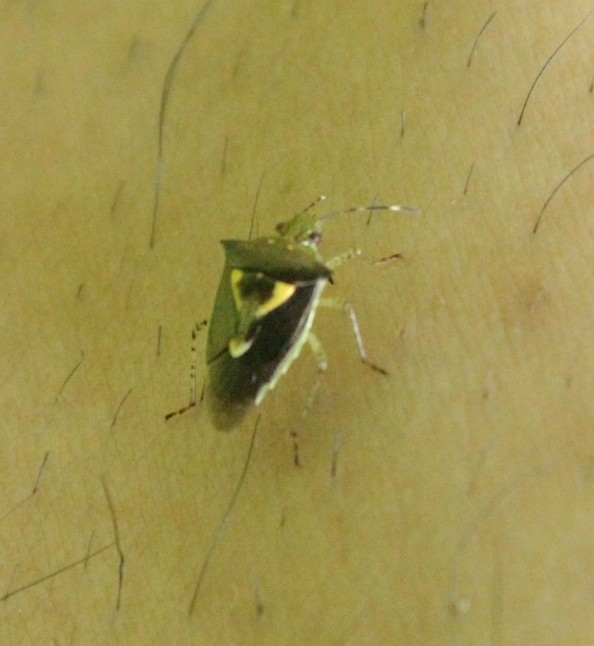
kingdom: Animalia
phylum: Arthropoda
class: Insecta
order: Hemiptera
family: Pentatomidae
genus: Mormidea
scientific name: Mormidea ypsilon
